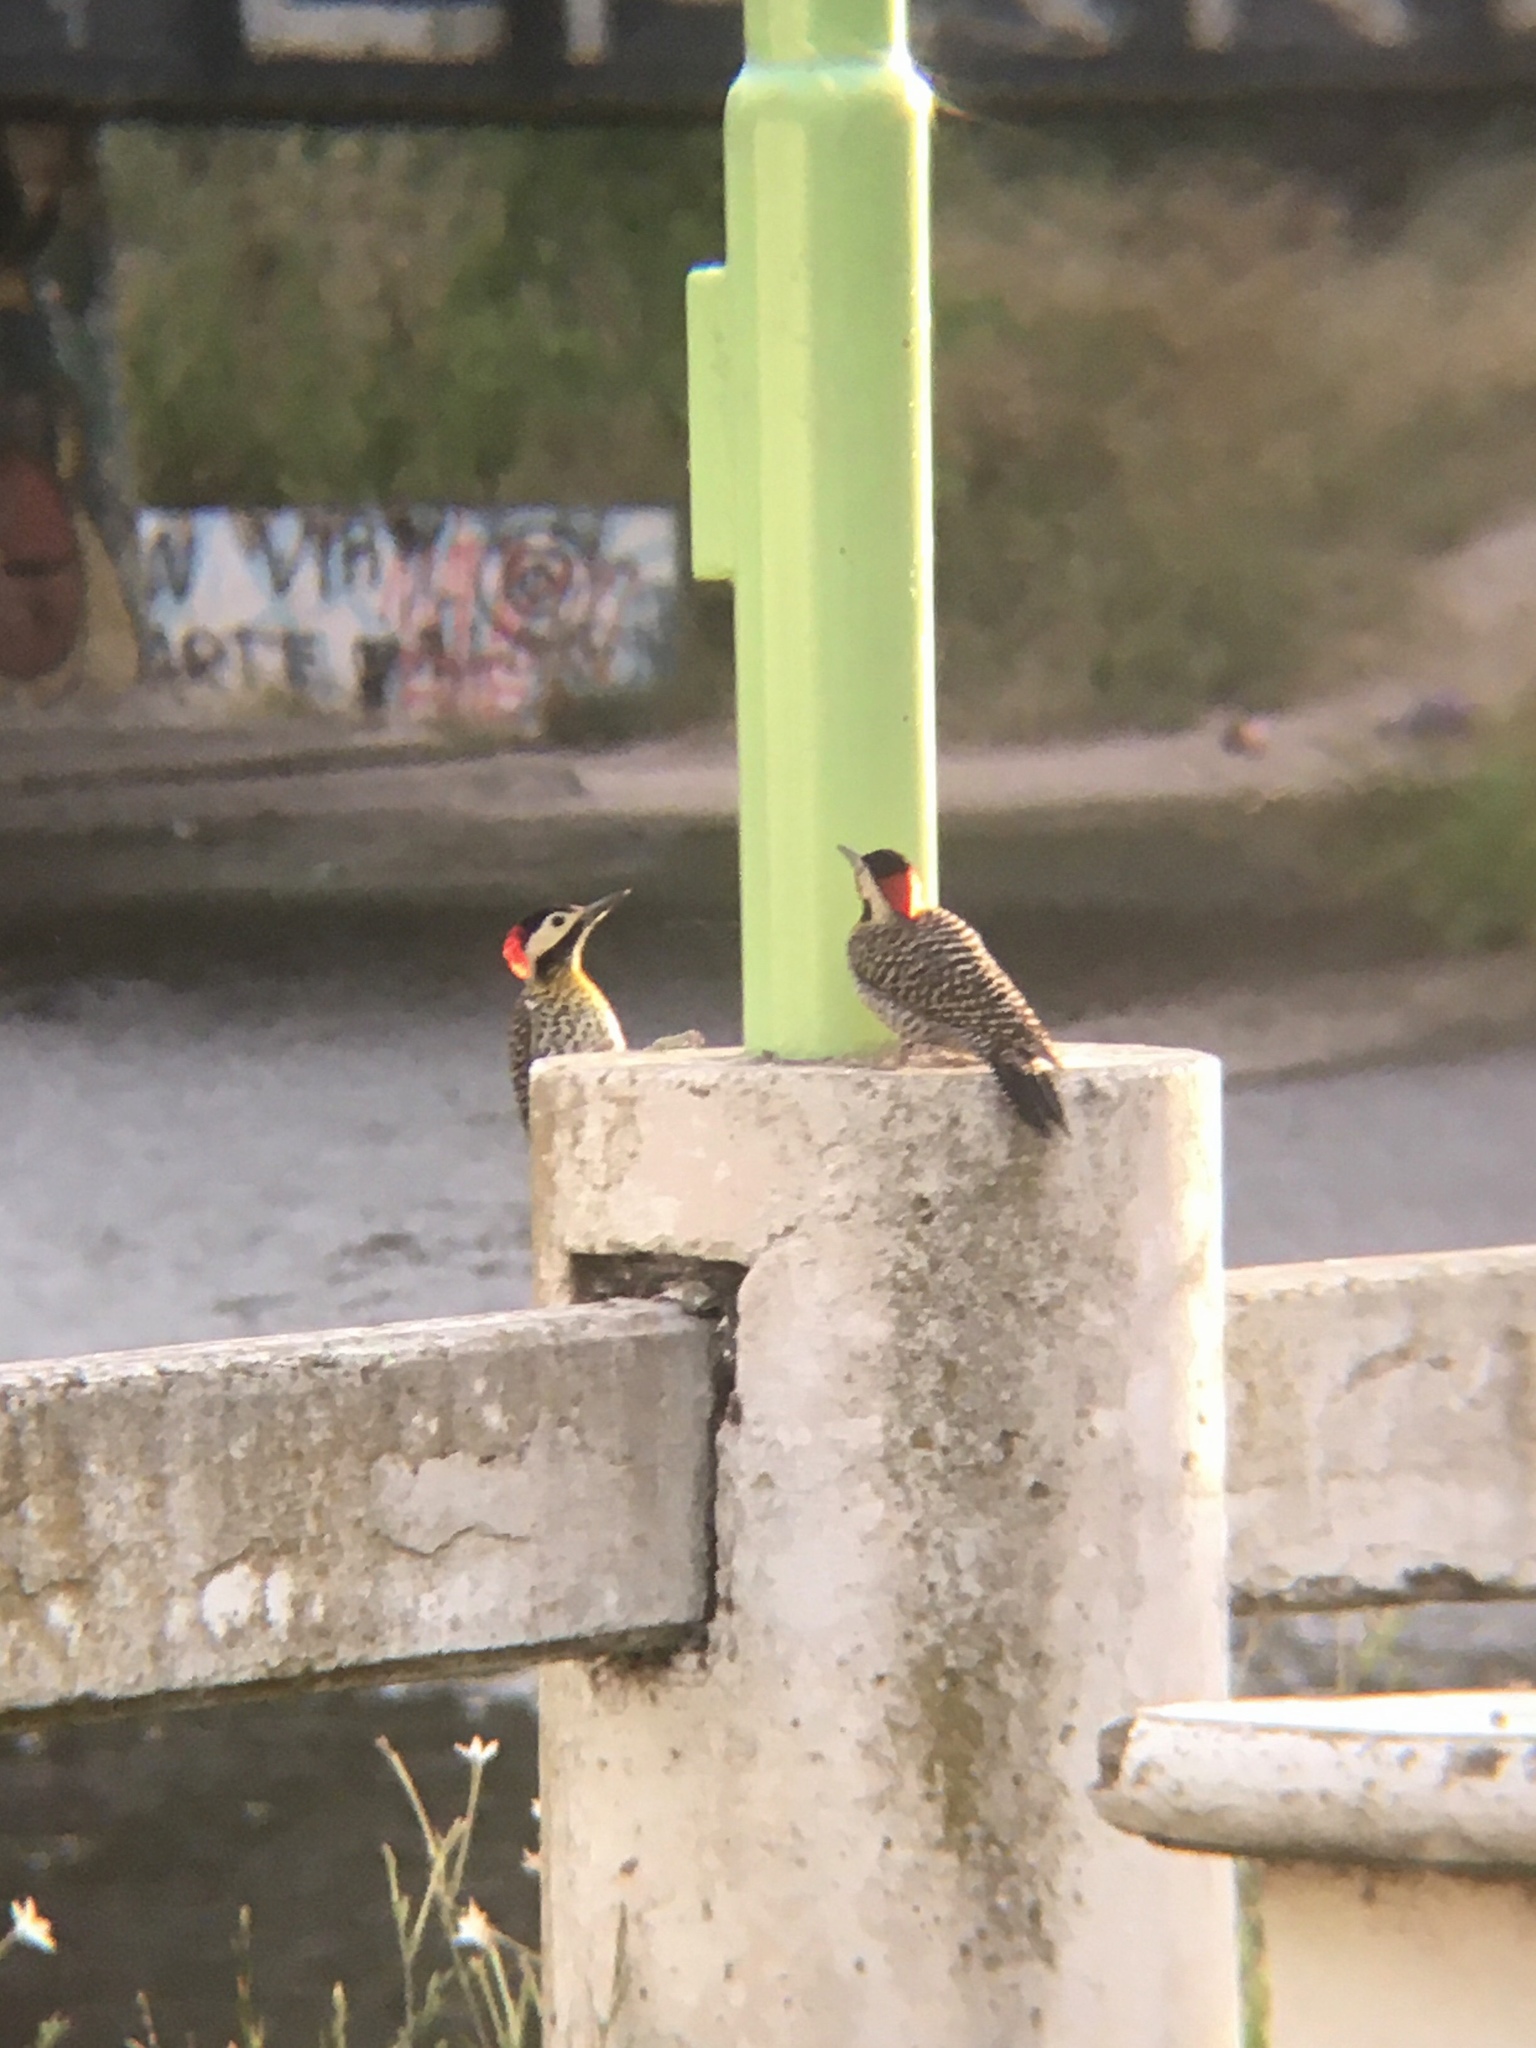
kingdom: Animalia
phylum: Chordata
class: Aves
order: Piciformes
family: Picidae
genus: Colaptes
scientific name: Colaptes melanochloros
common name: Green-barred woodpecker
